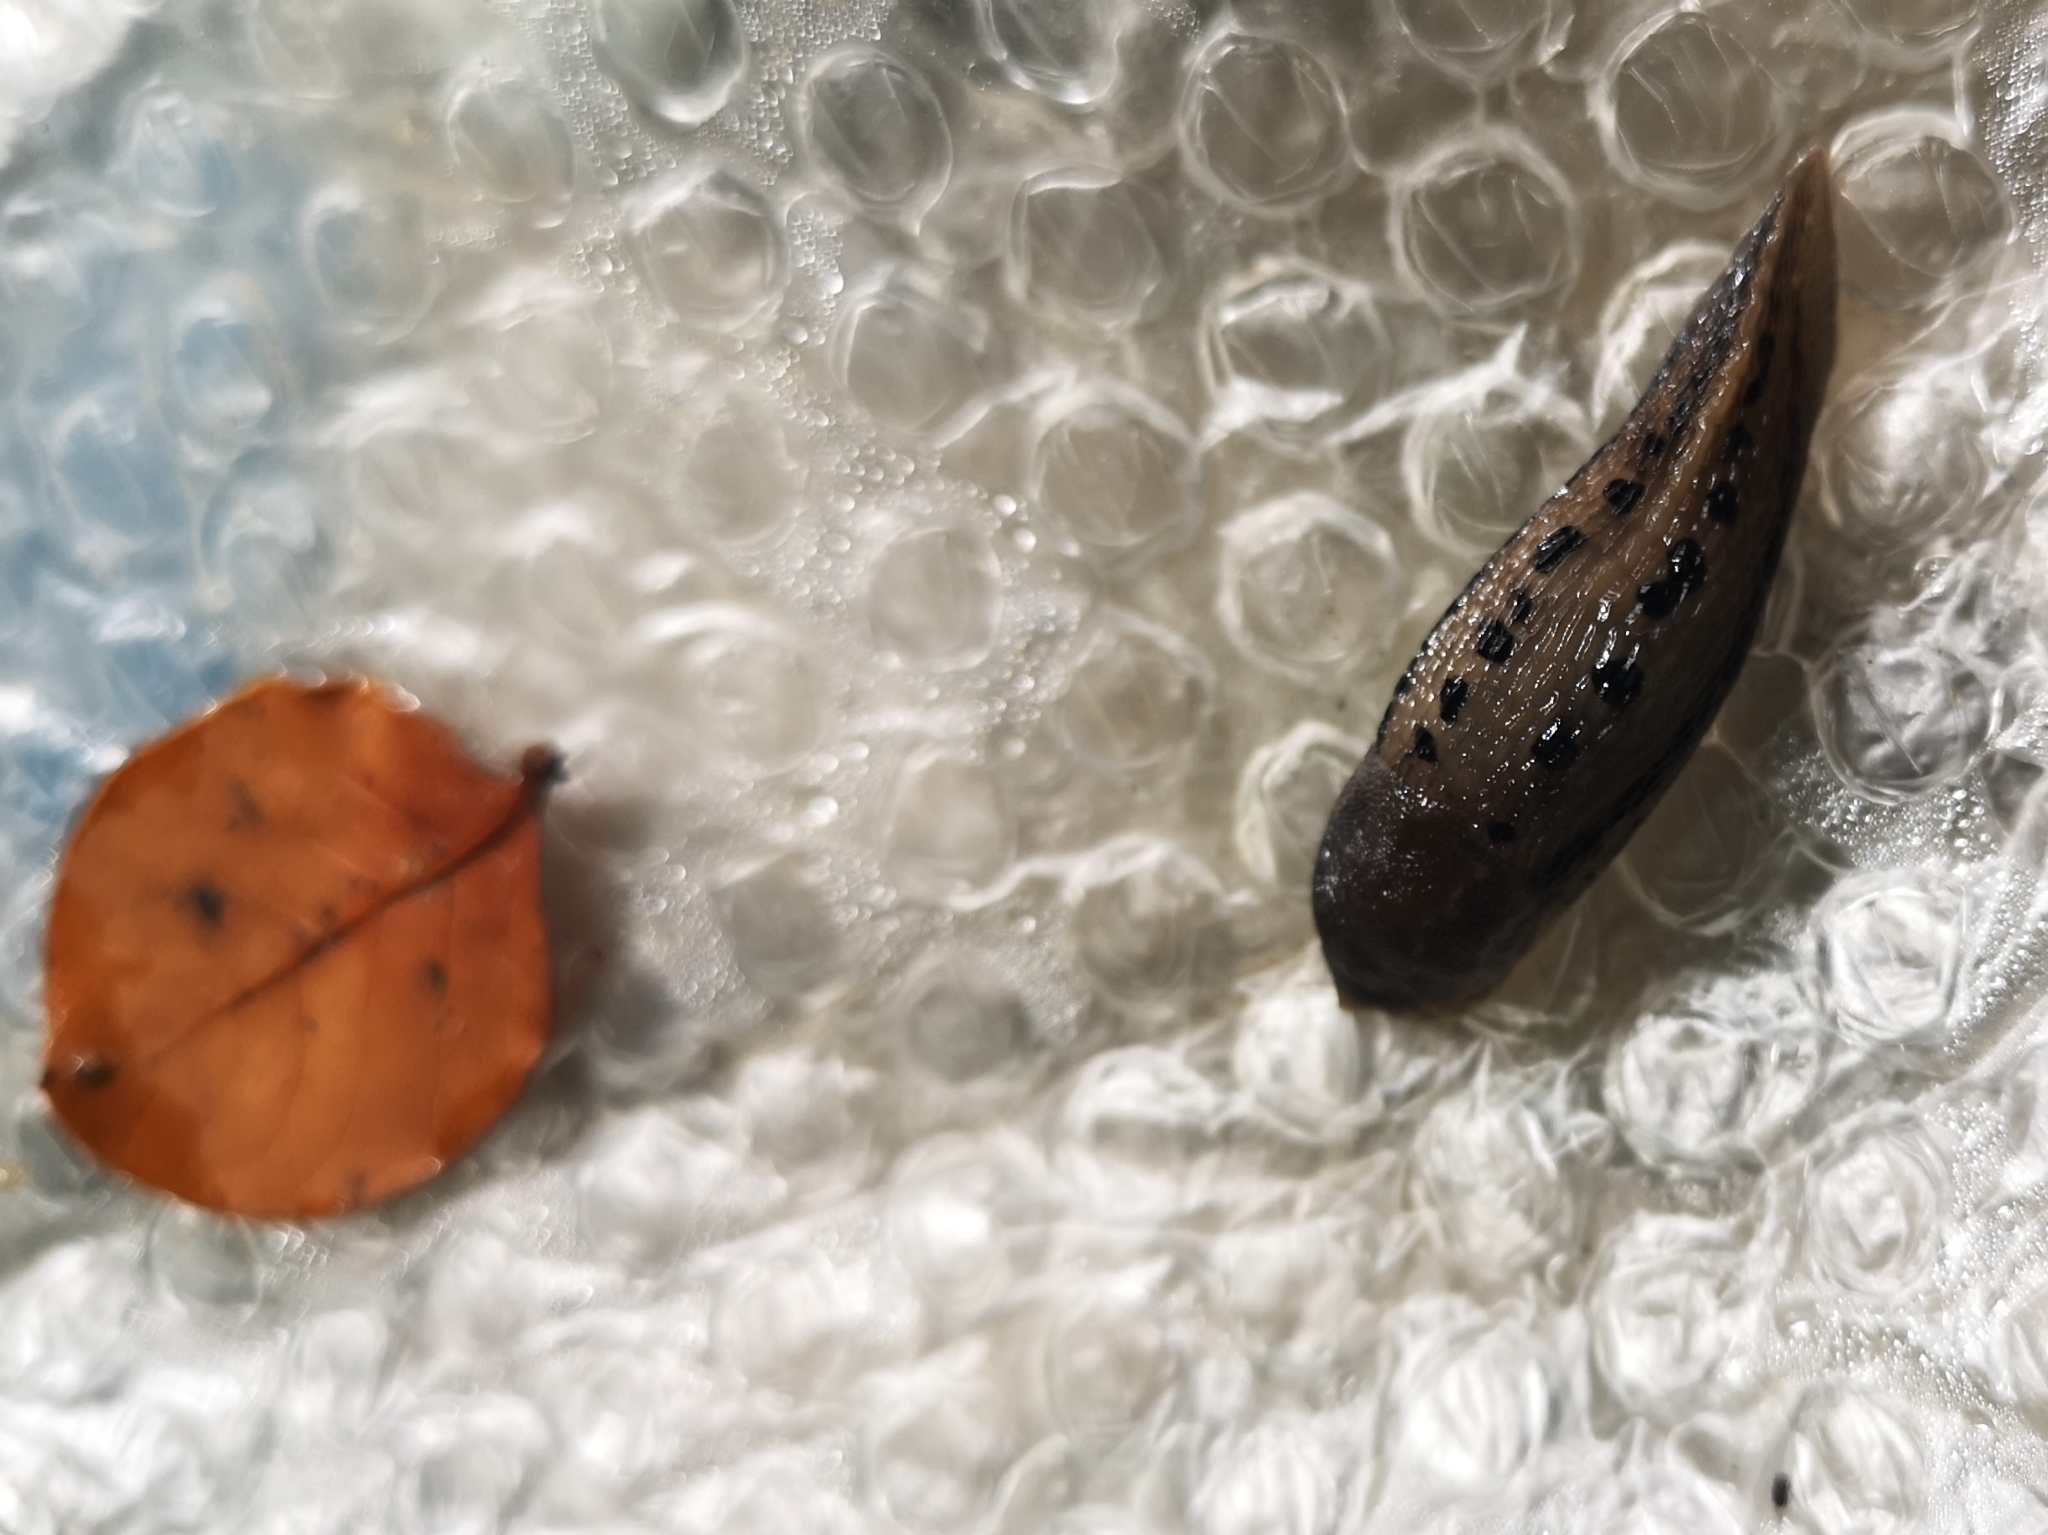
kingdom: Animalia
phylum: Mollusca
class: Gastropoda
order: Stylommatophora
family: Limacidae
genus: Limax
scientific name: Limax maximus
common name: Great grey slug
